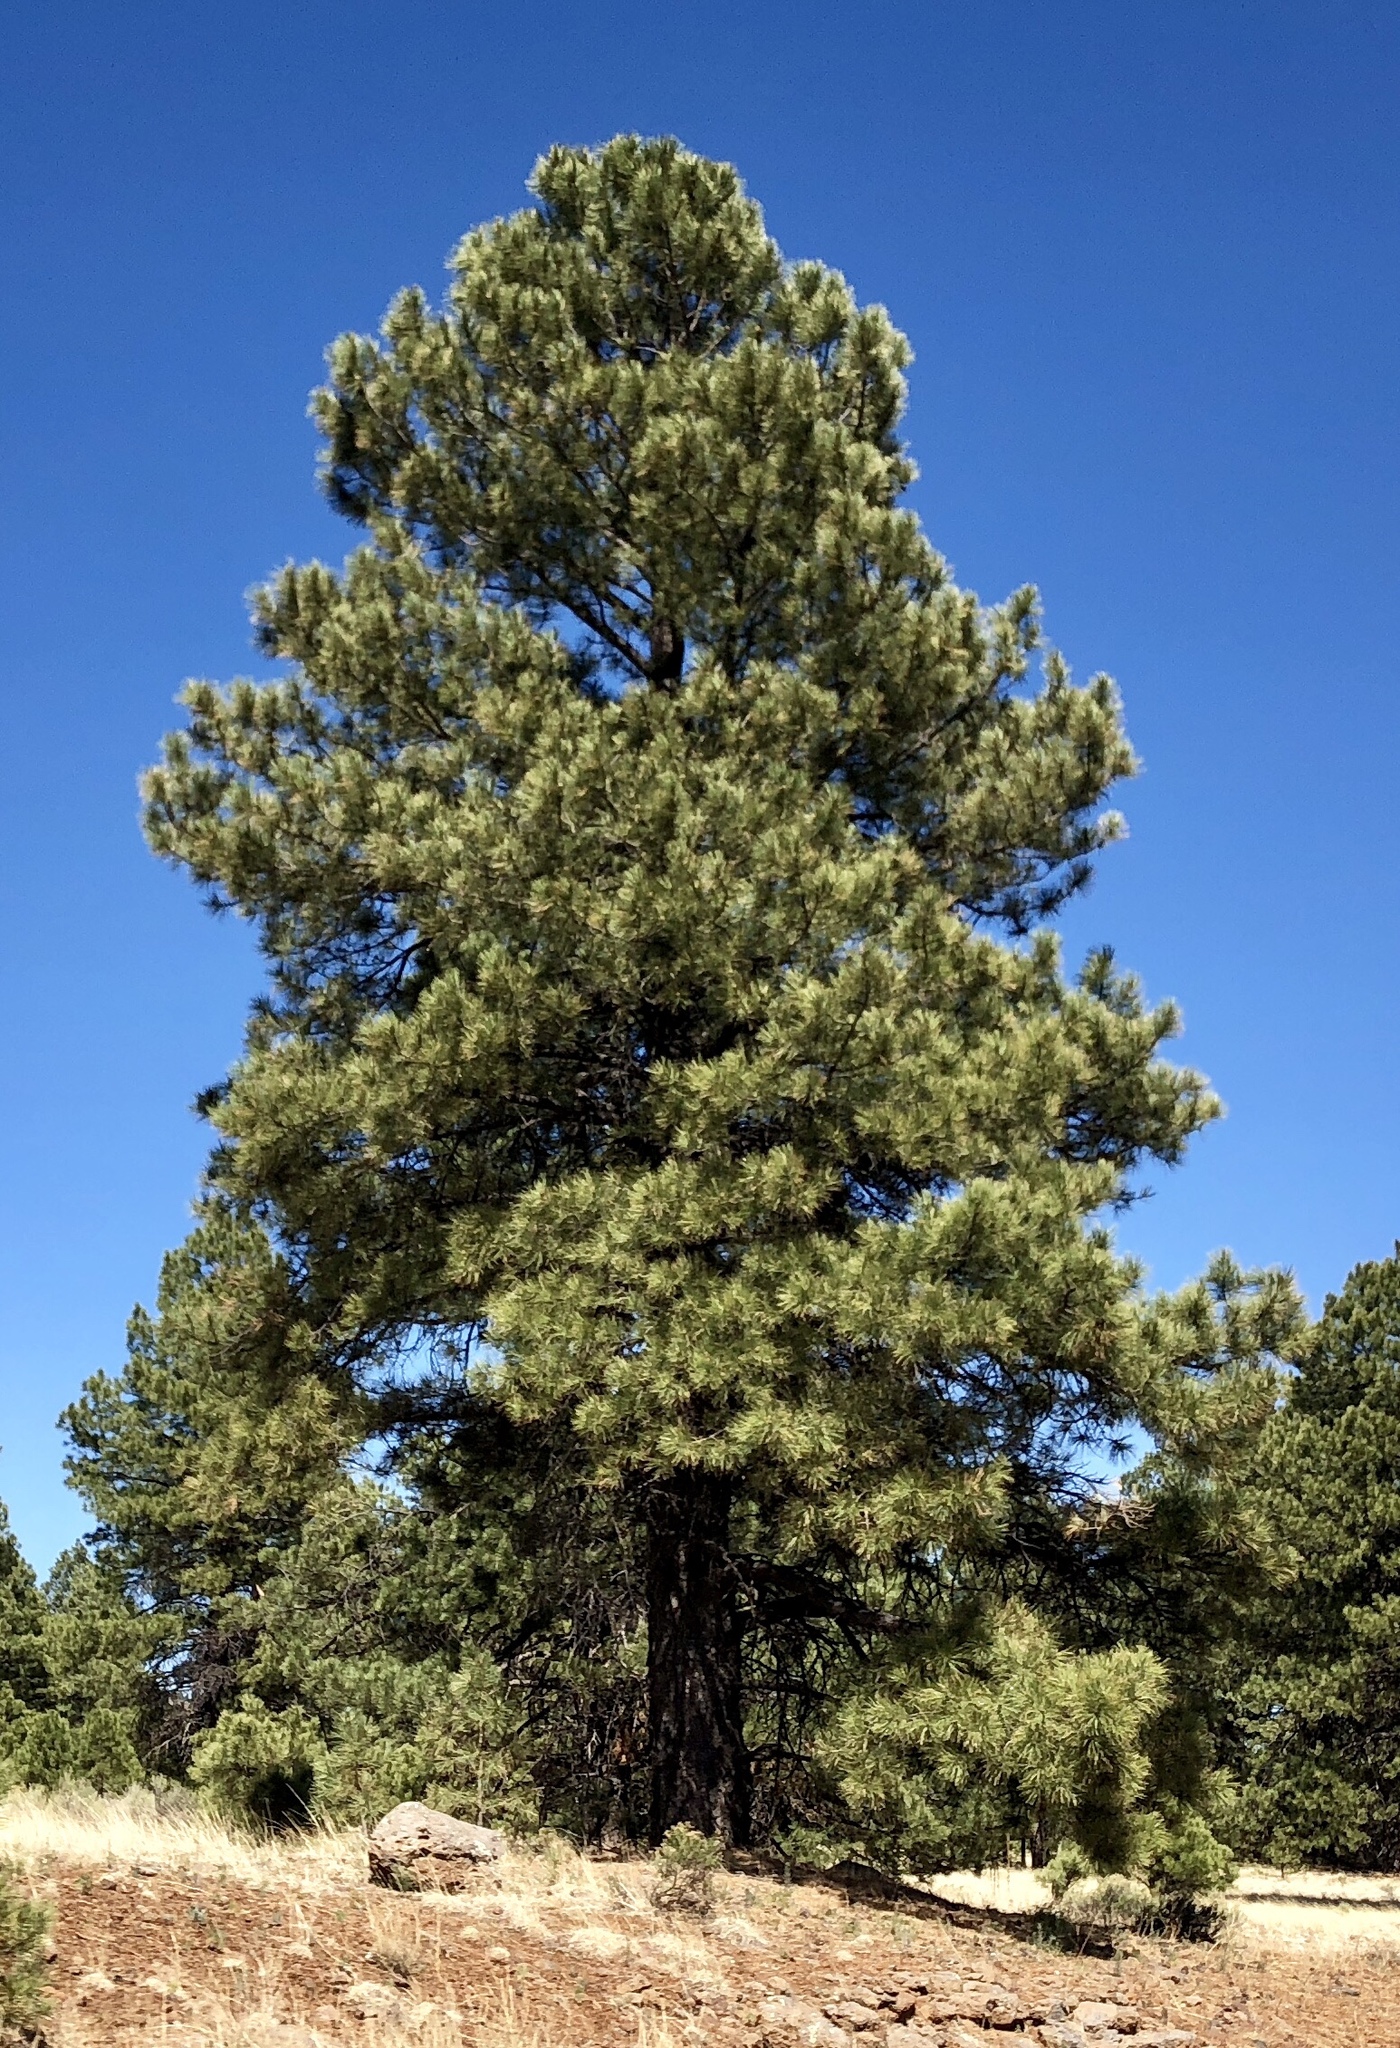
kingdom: Plantae
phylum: Tracheophyta
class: Pinopsida
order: Pinales
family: Pinaceae
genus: Pinus
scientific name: Pinus ponderosa
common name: Western yellow-pine
